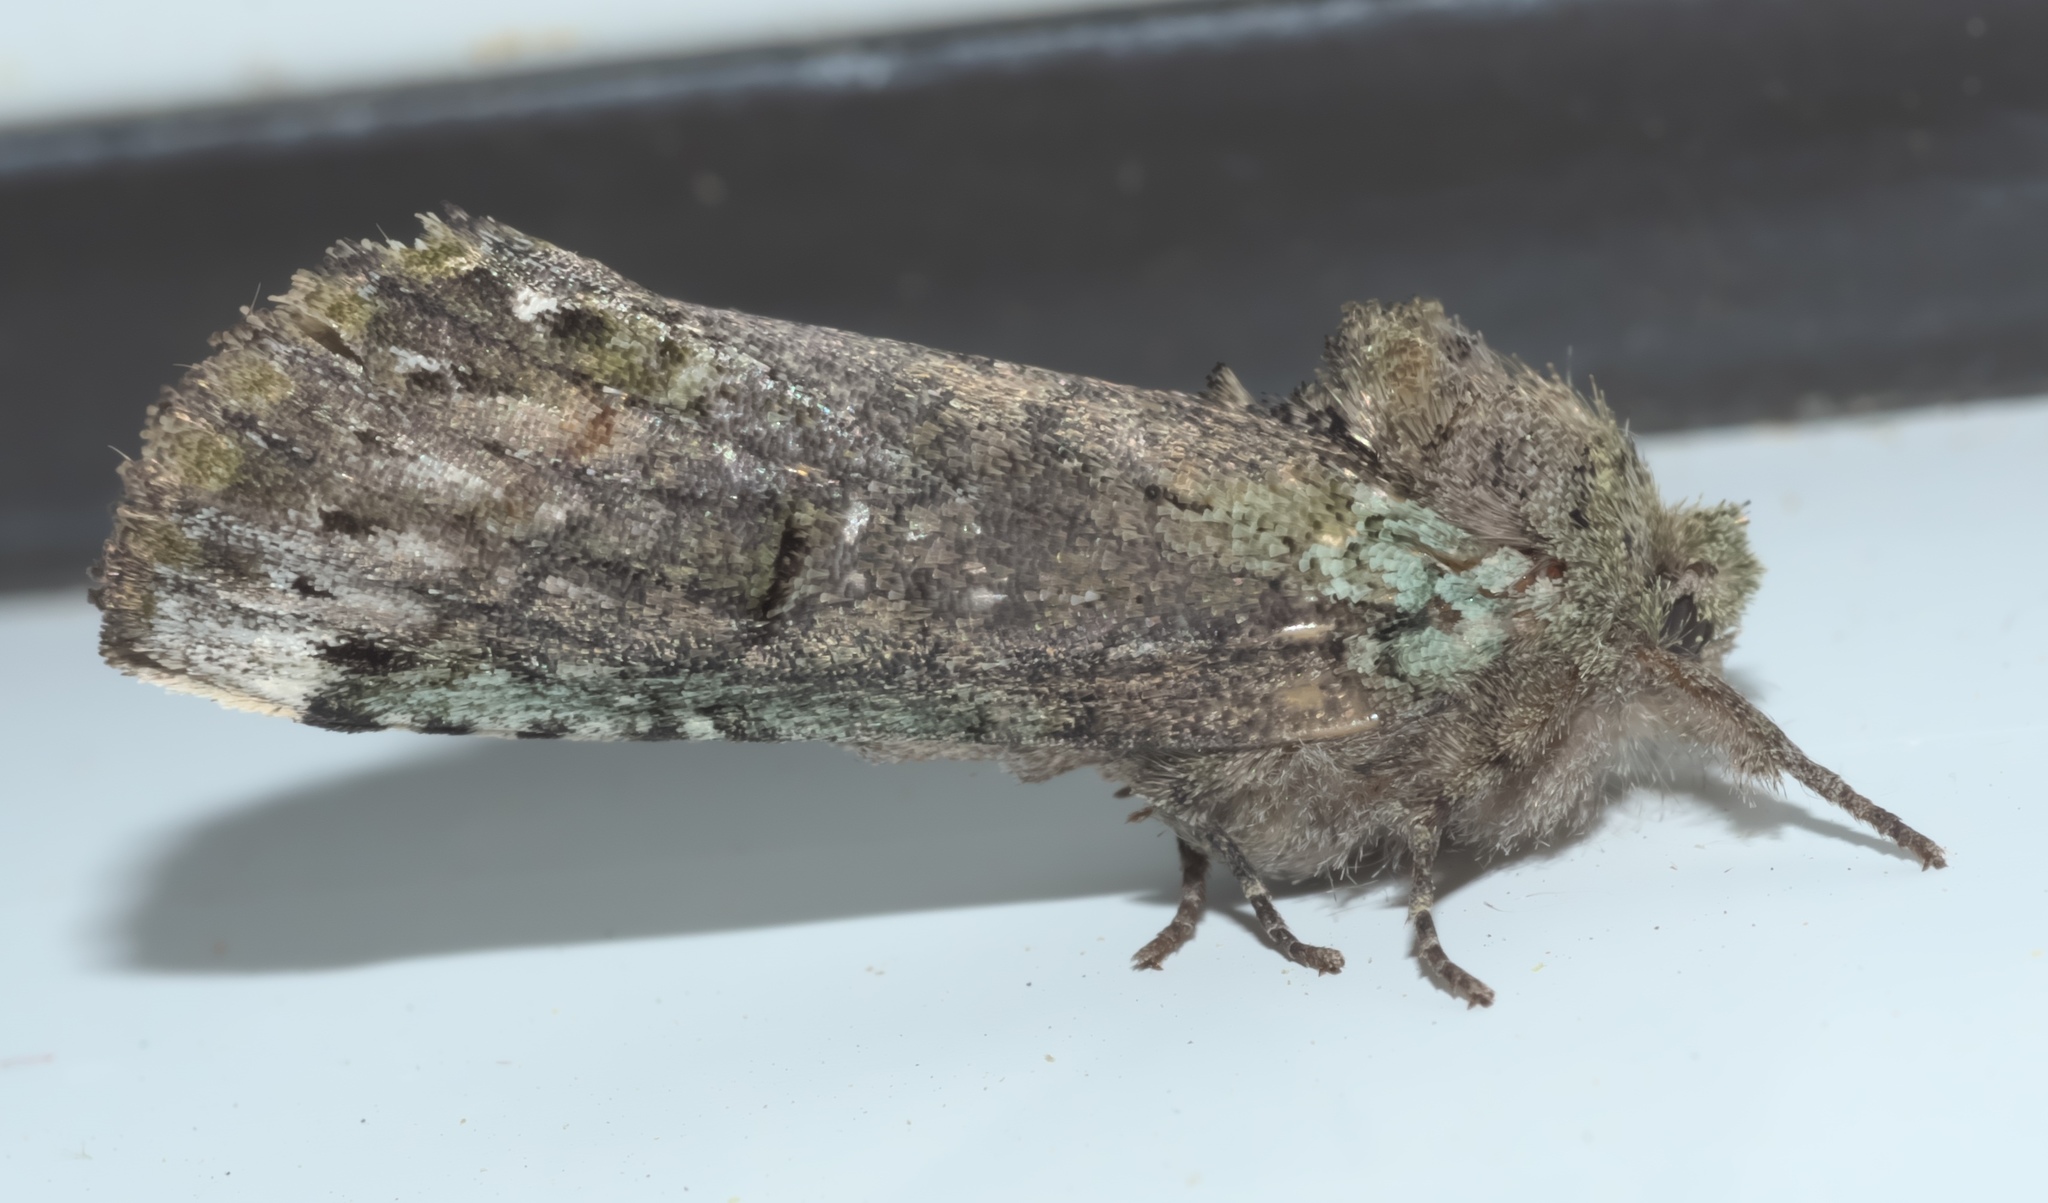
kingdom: Animalia
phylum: Arthropoda
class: Insecta
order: Lepidoptera
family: Notodontidae
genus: Schizura
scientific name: Schizura
